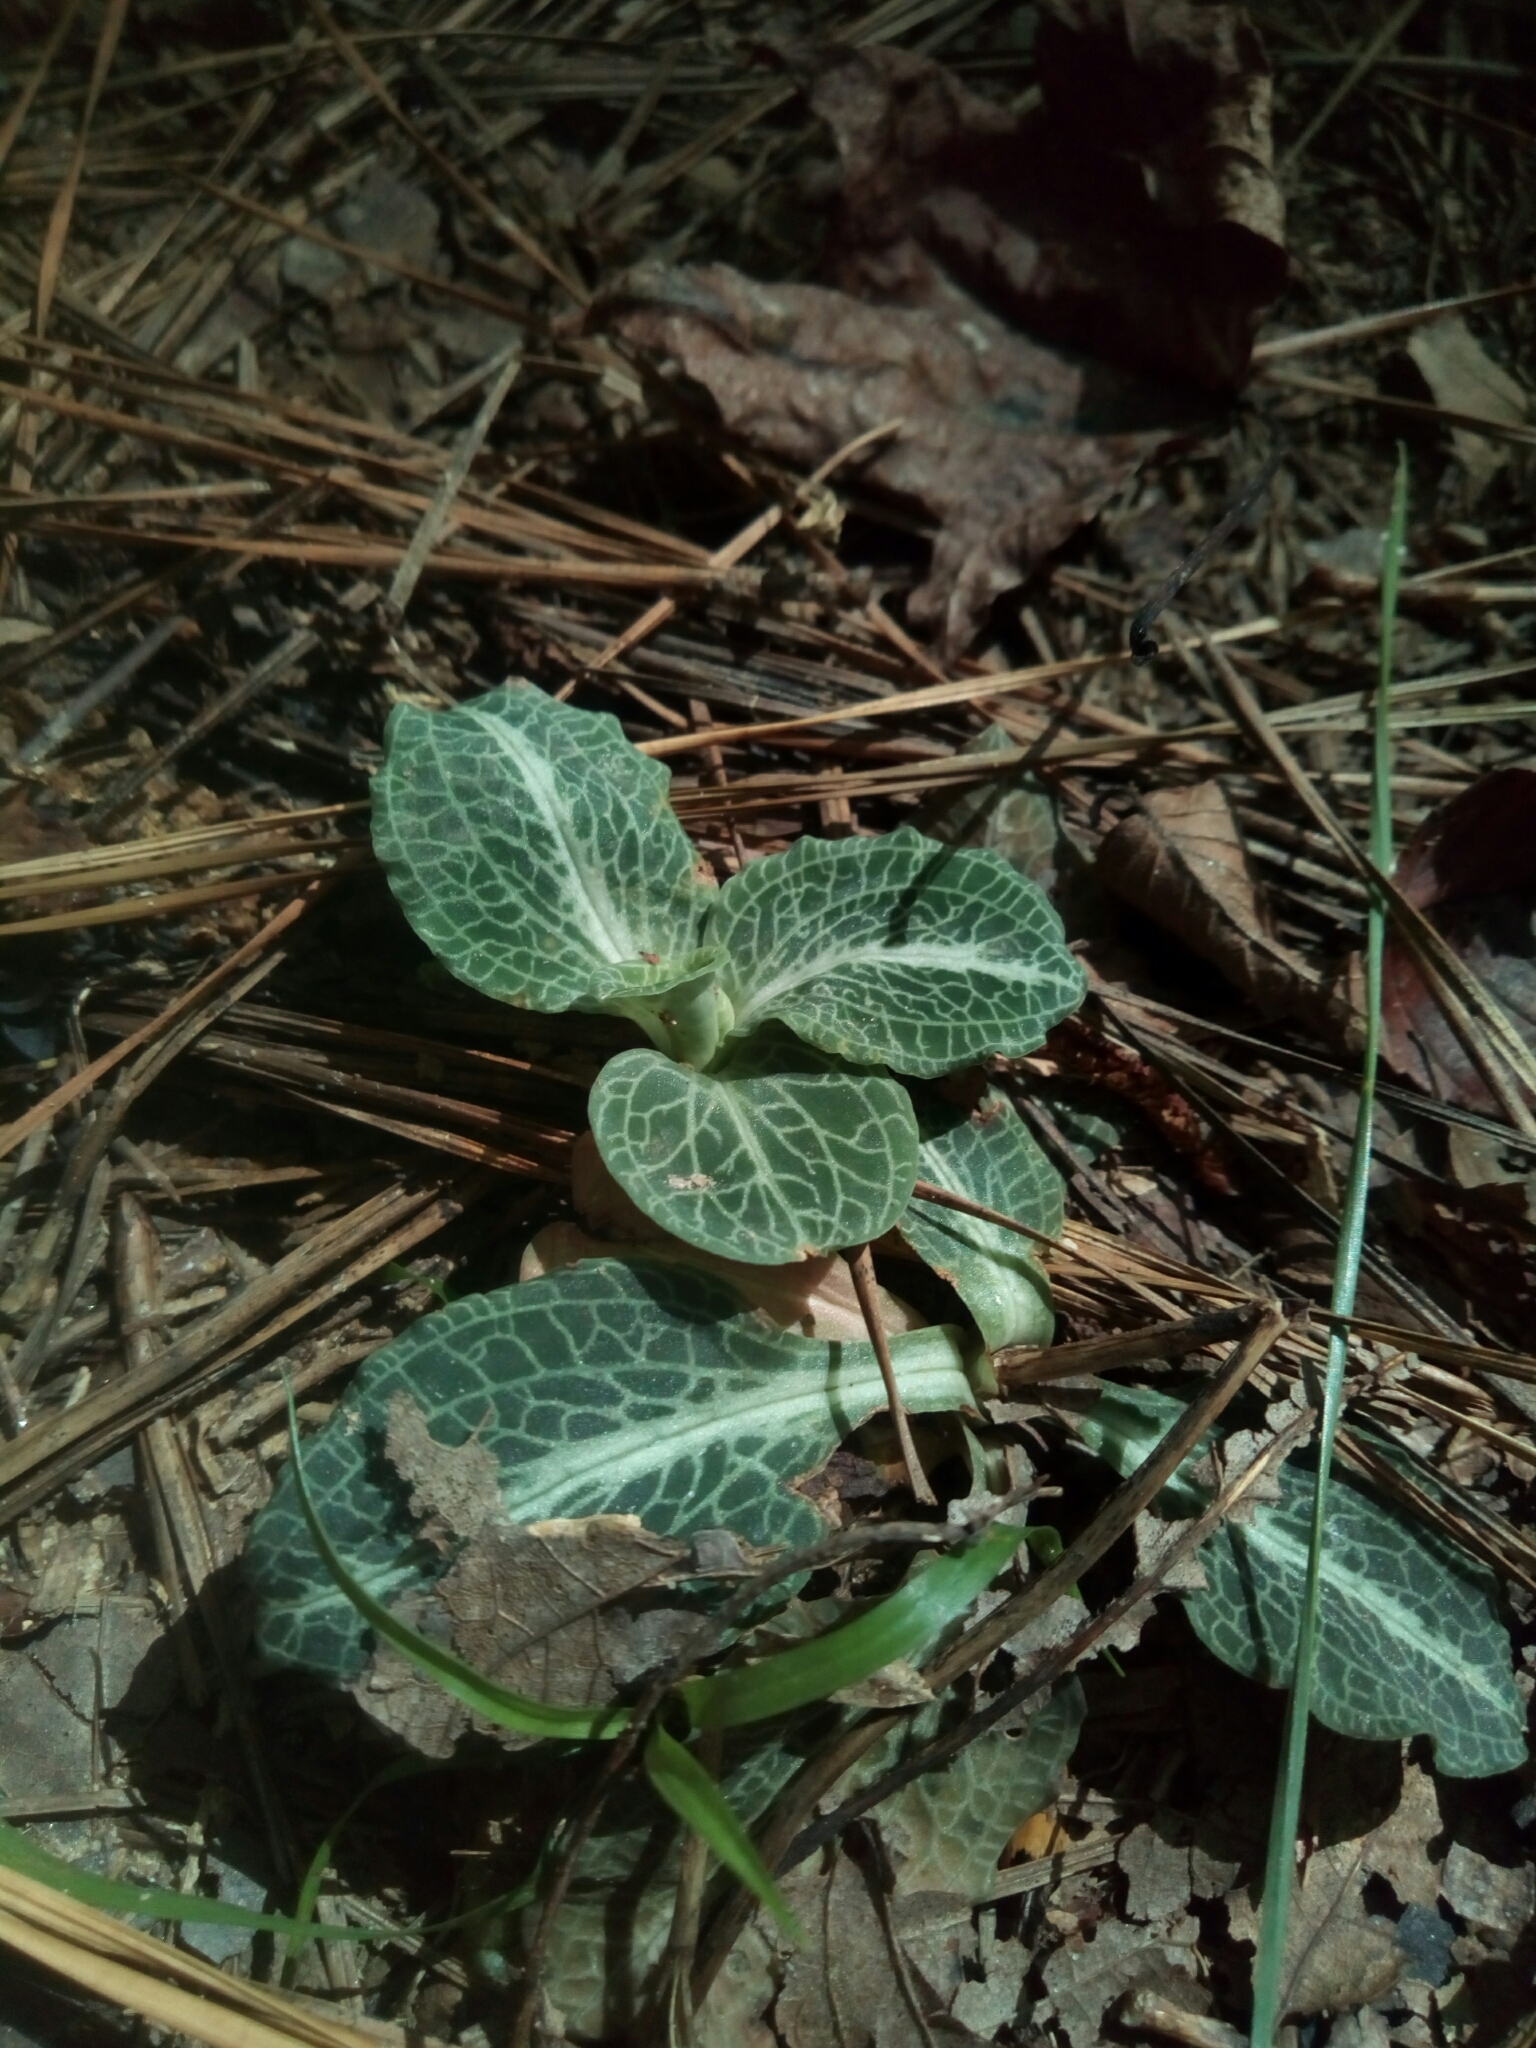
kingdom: Plantae
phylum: Tracheophyta
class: Liliopsida
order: Asparagales
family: Orchidaceae
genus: Goodyera
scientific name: Goodyera pubescens
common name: Downy rattlesnake-plantain
